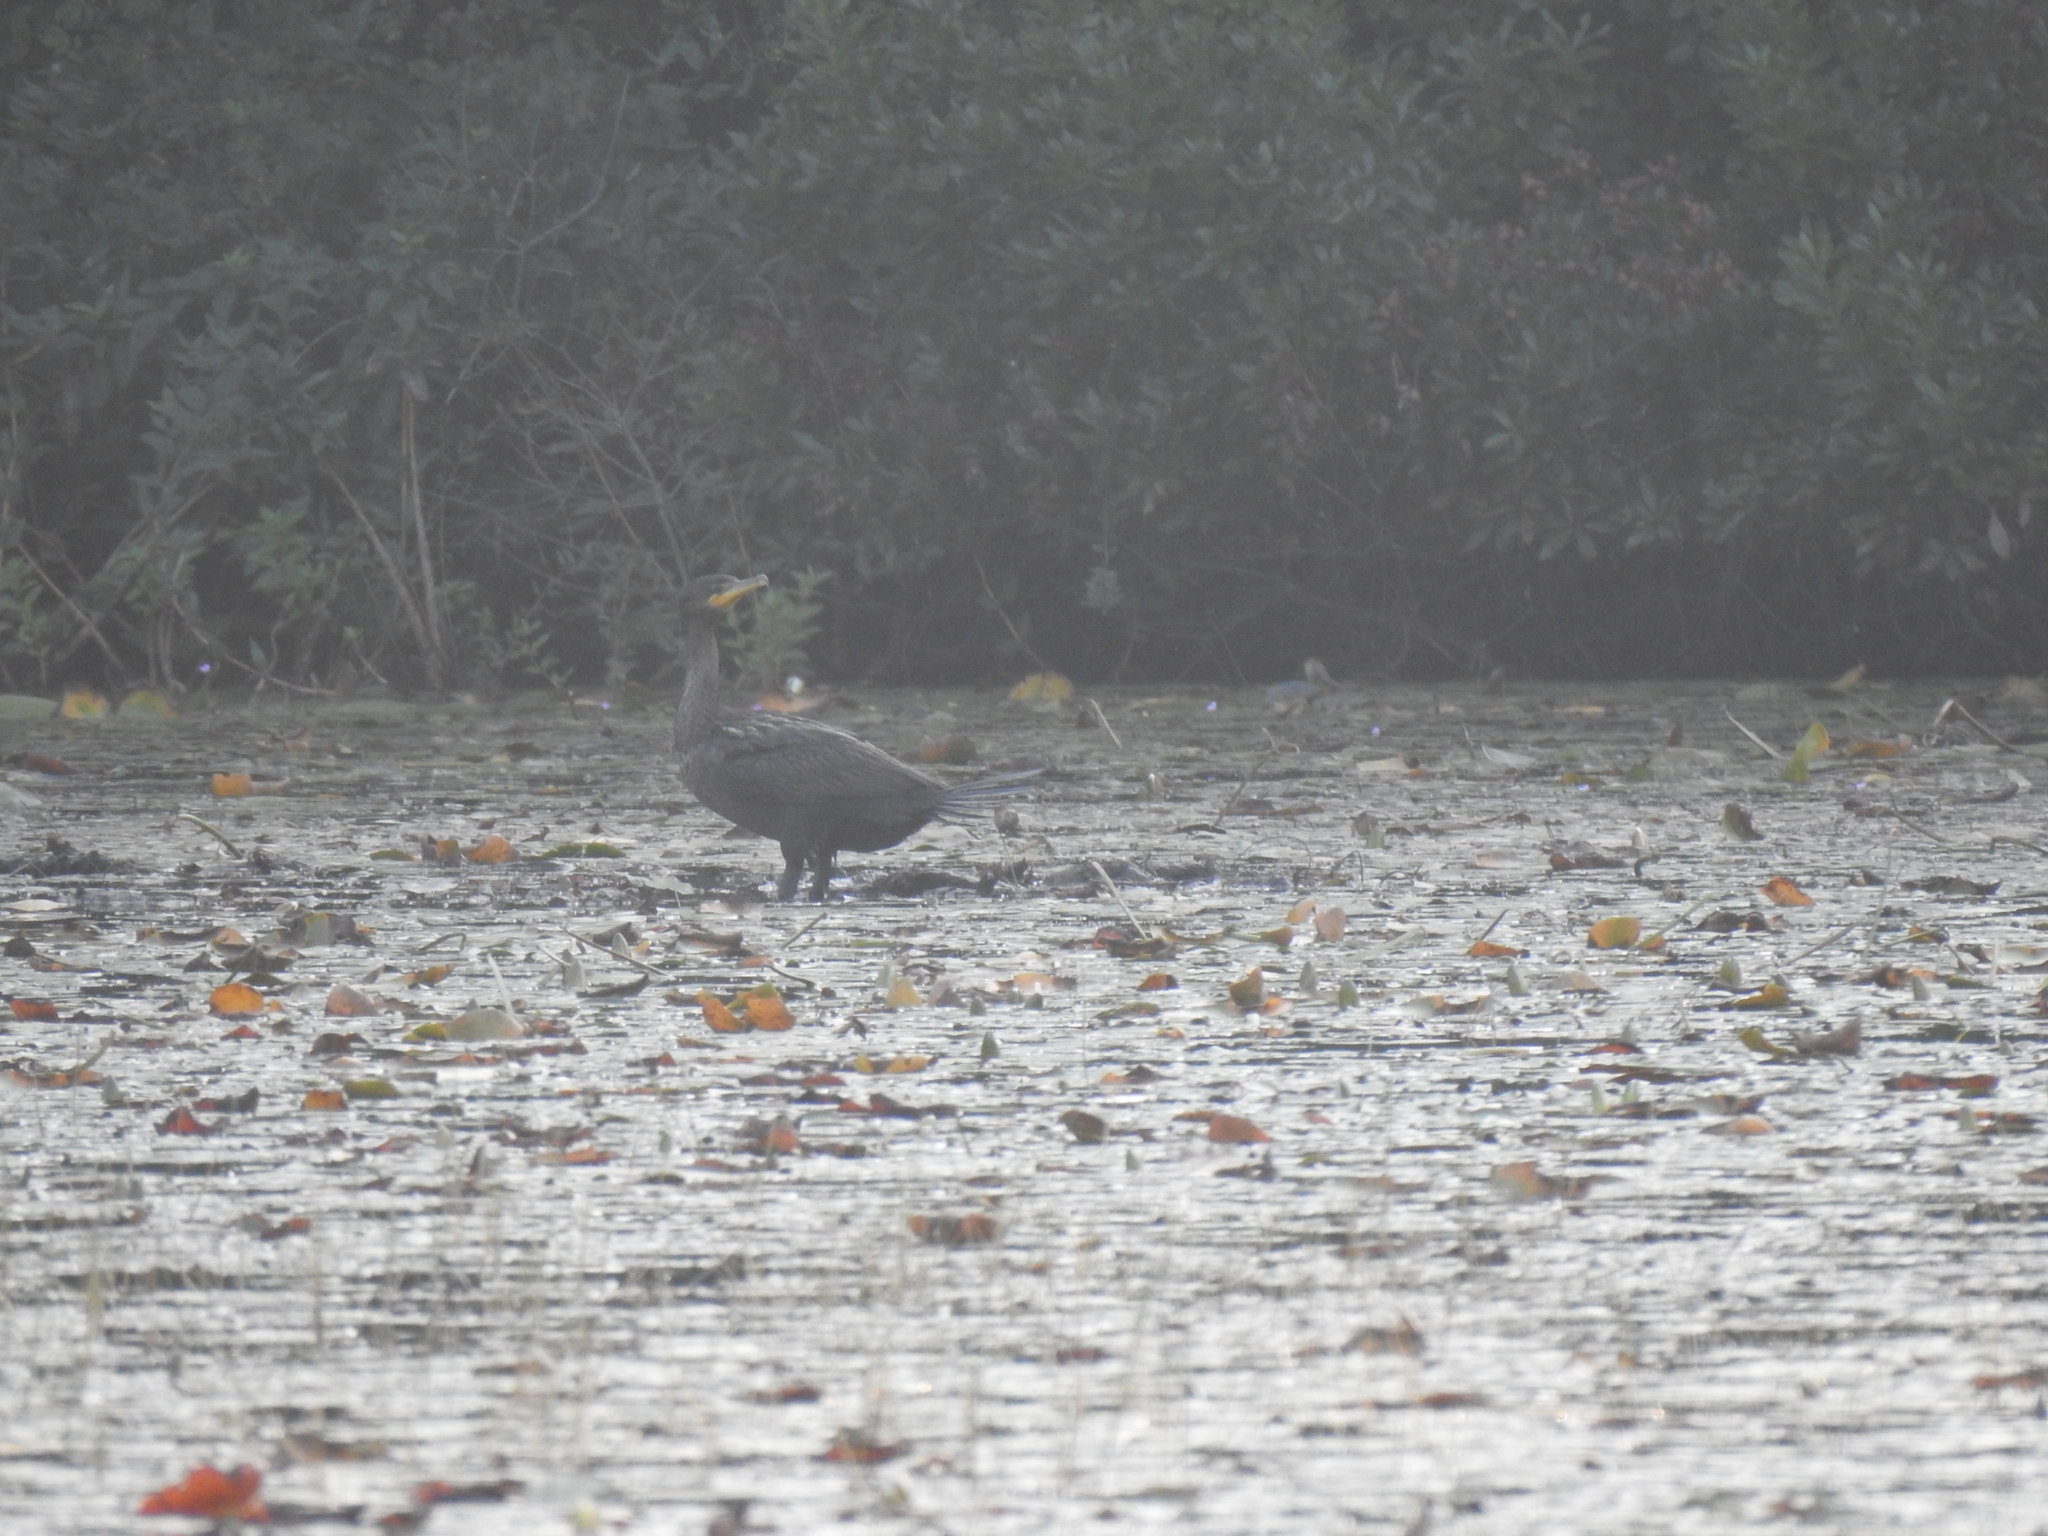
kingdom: Animalia
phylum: Chordata
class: Aves
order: Suliformes
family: Phalacrocoracidae
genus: Phalacrocorax
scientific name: Phalacrocorax auritus
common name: Double-crested cormorant
